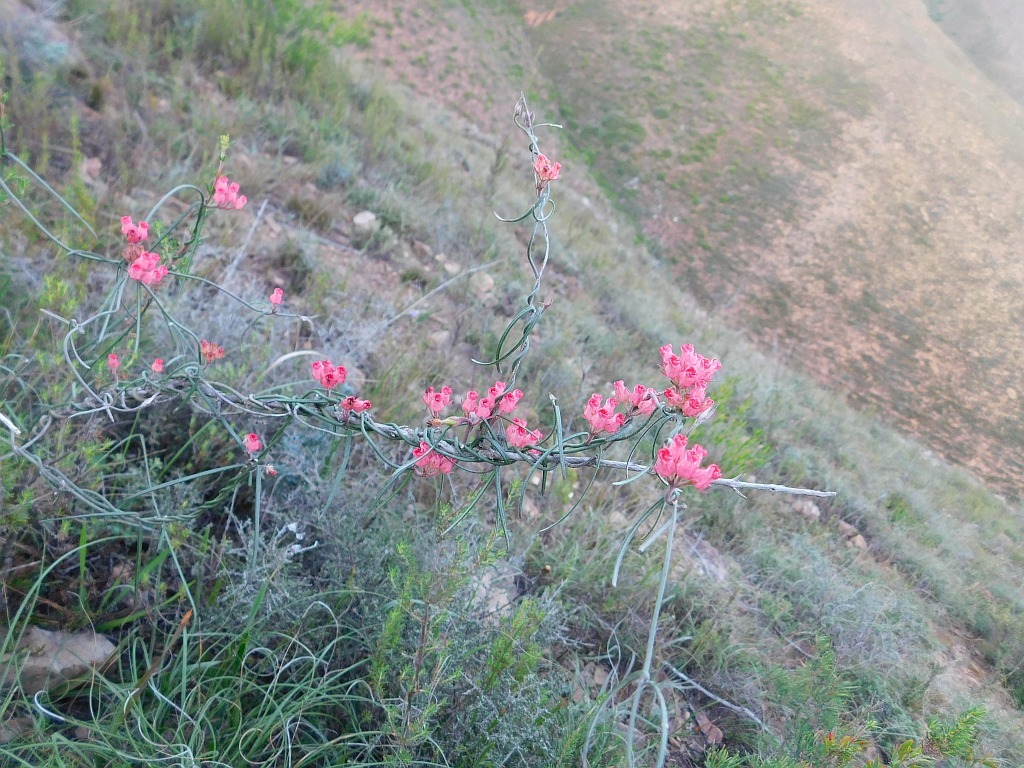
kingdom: Plantae
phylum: Tracheophyta
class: Magnoliopsida
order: Gentianales
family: Apocynaceae
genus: Microloma
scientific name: Microloma tenuifolium
